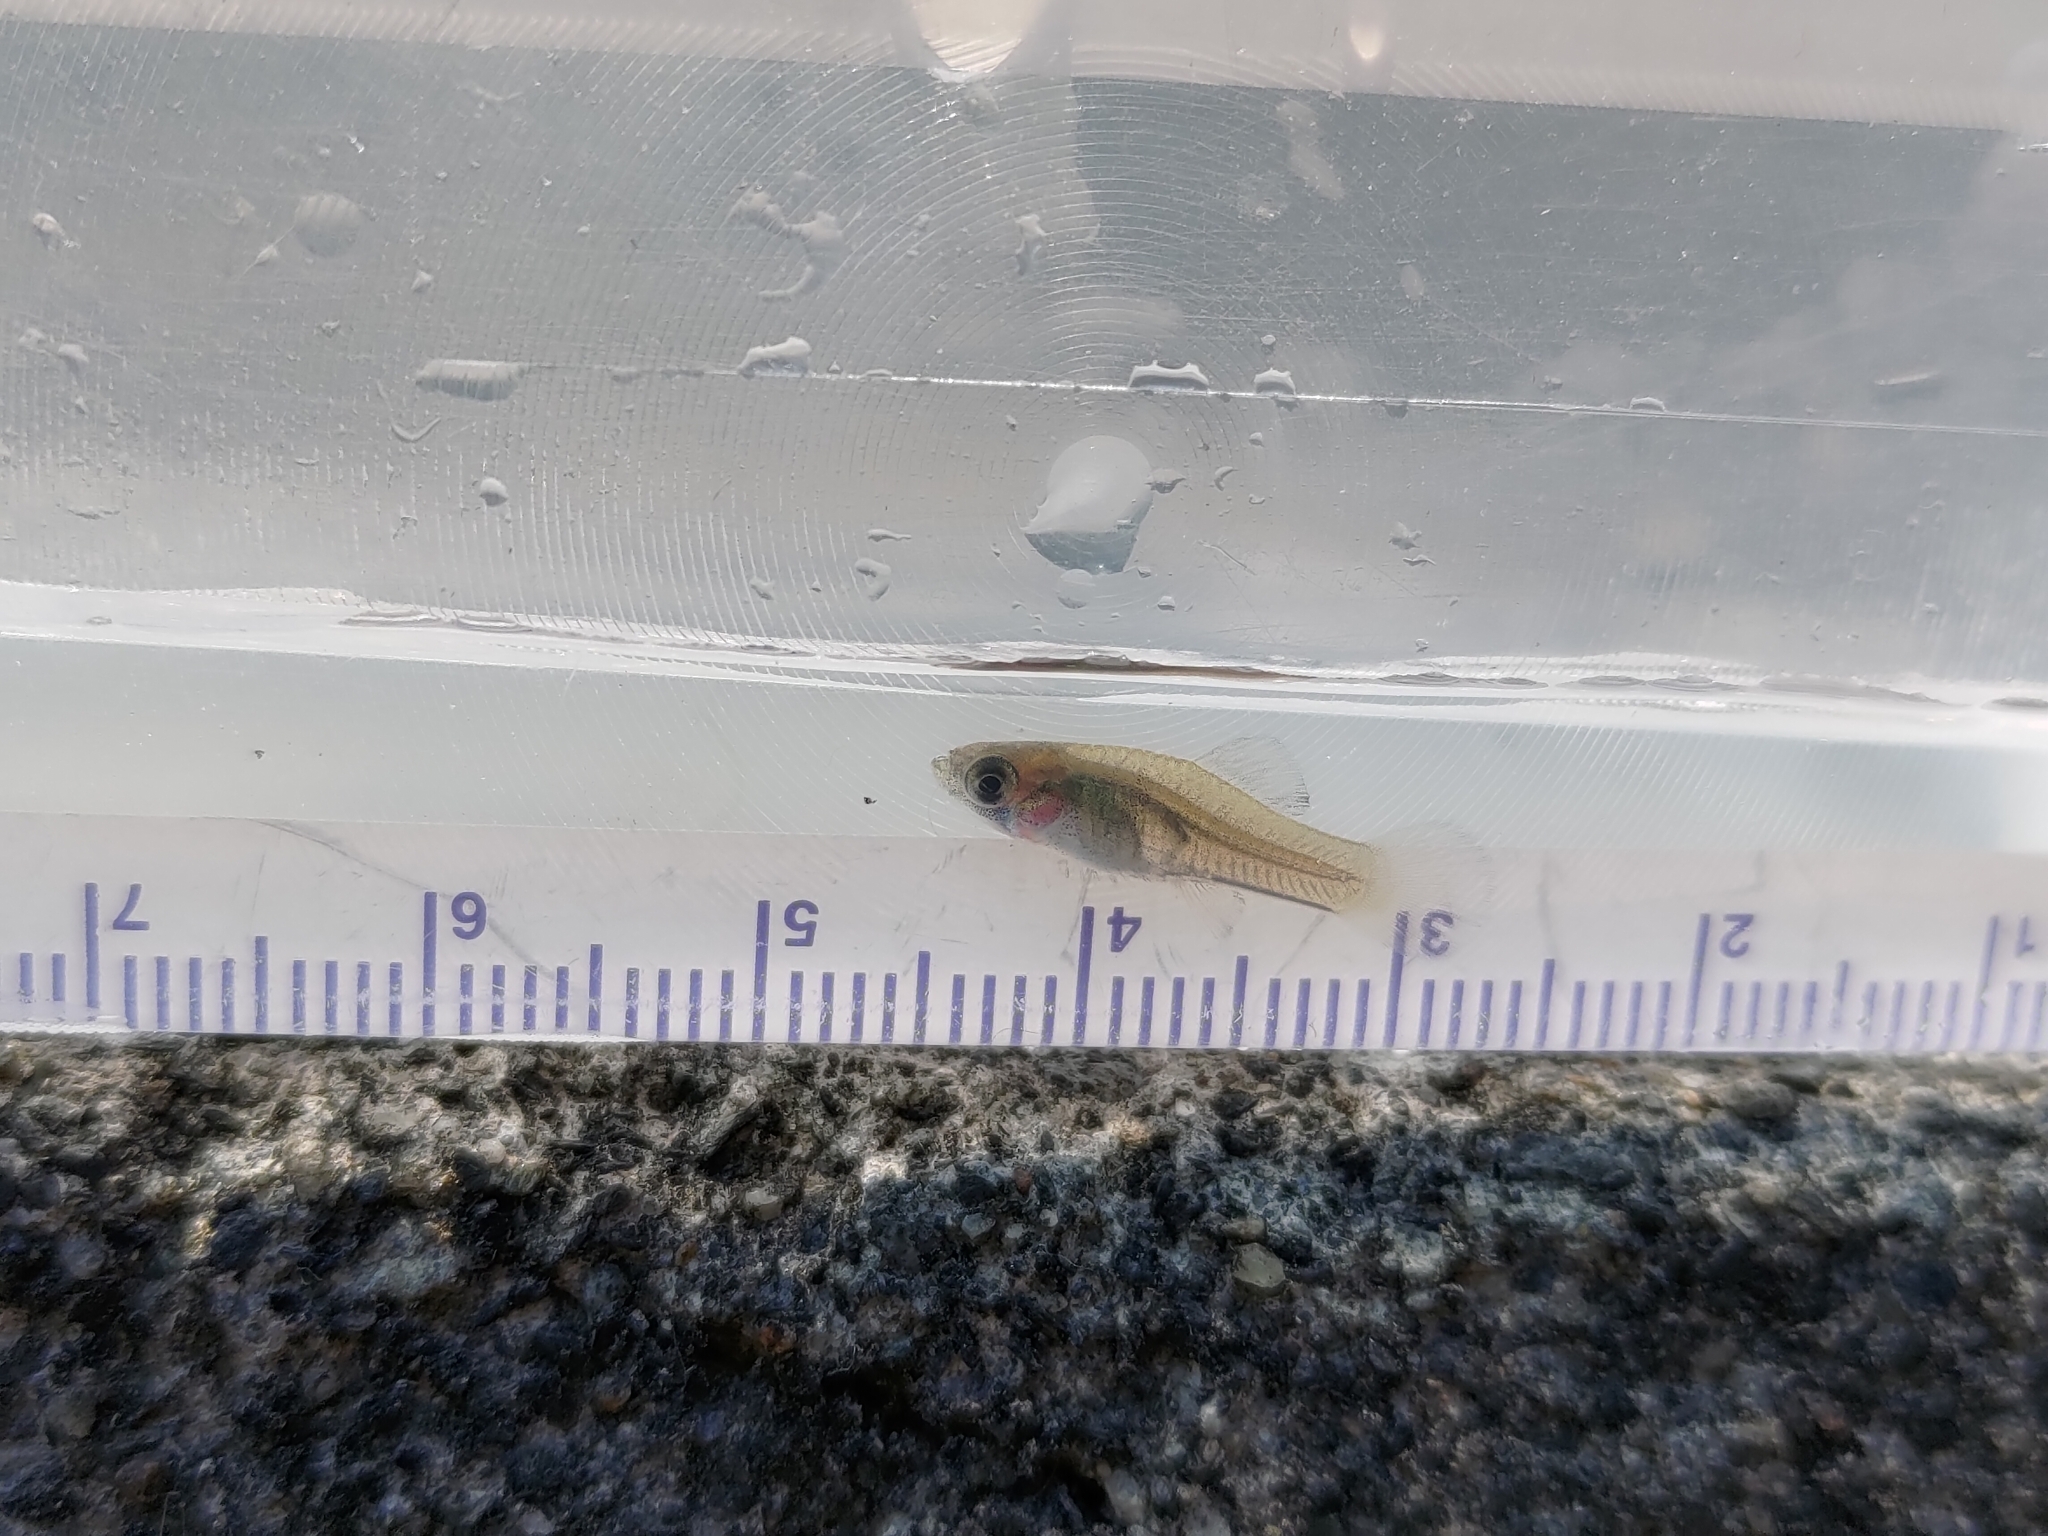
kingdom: Animalia
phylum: Chordata
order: Cyprinodontiformes
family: Poeciliidae
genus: Gambusia
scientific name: Gambusia affinis
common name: Mosquitofish
